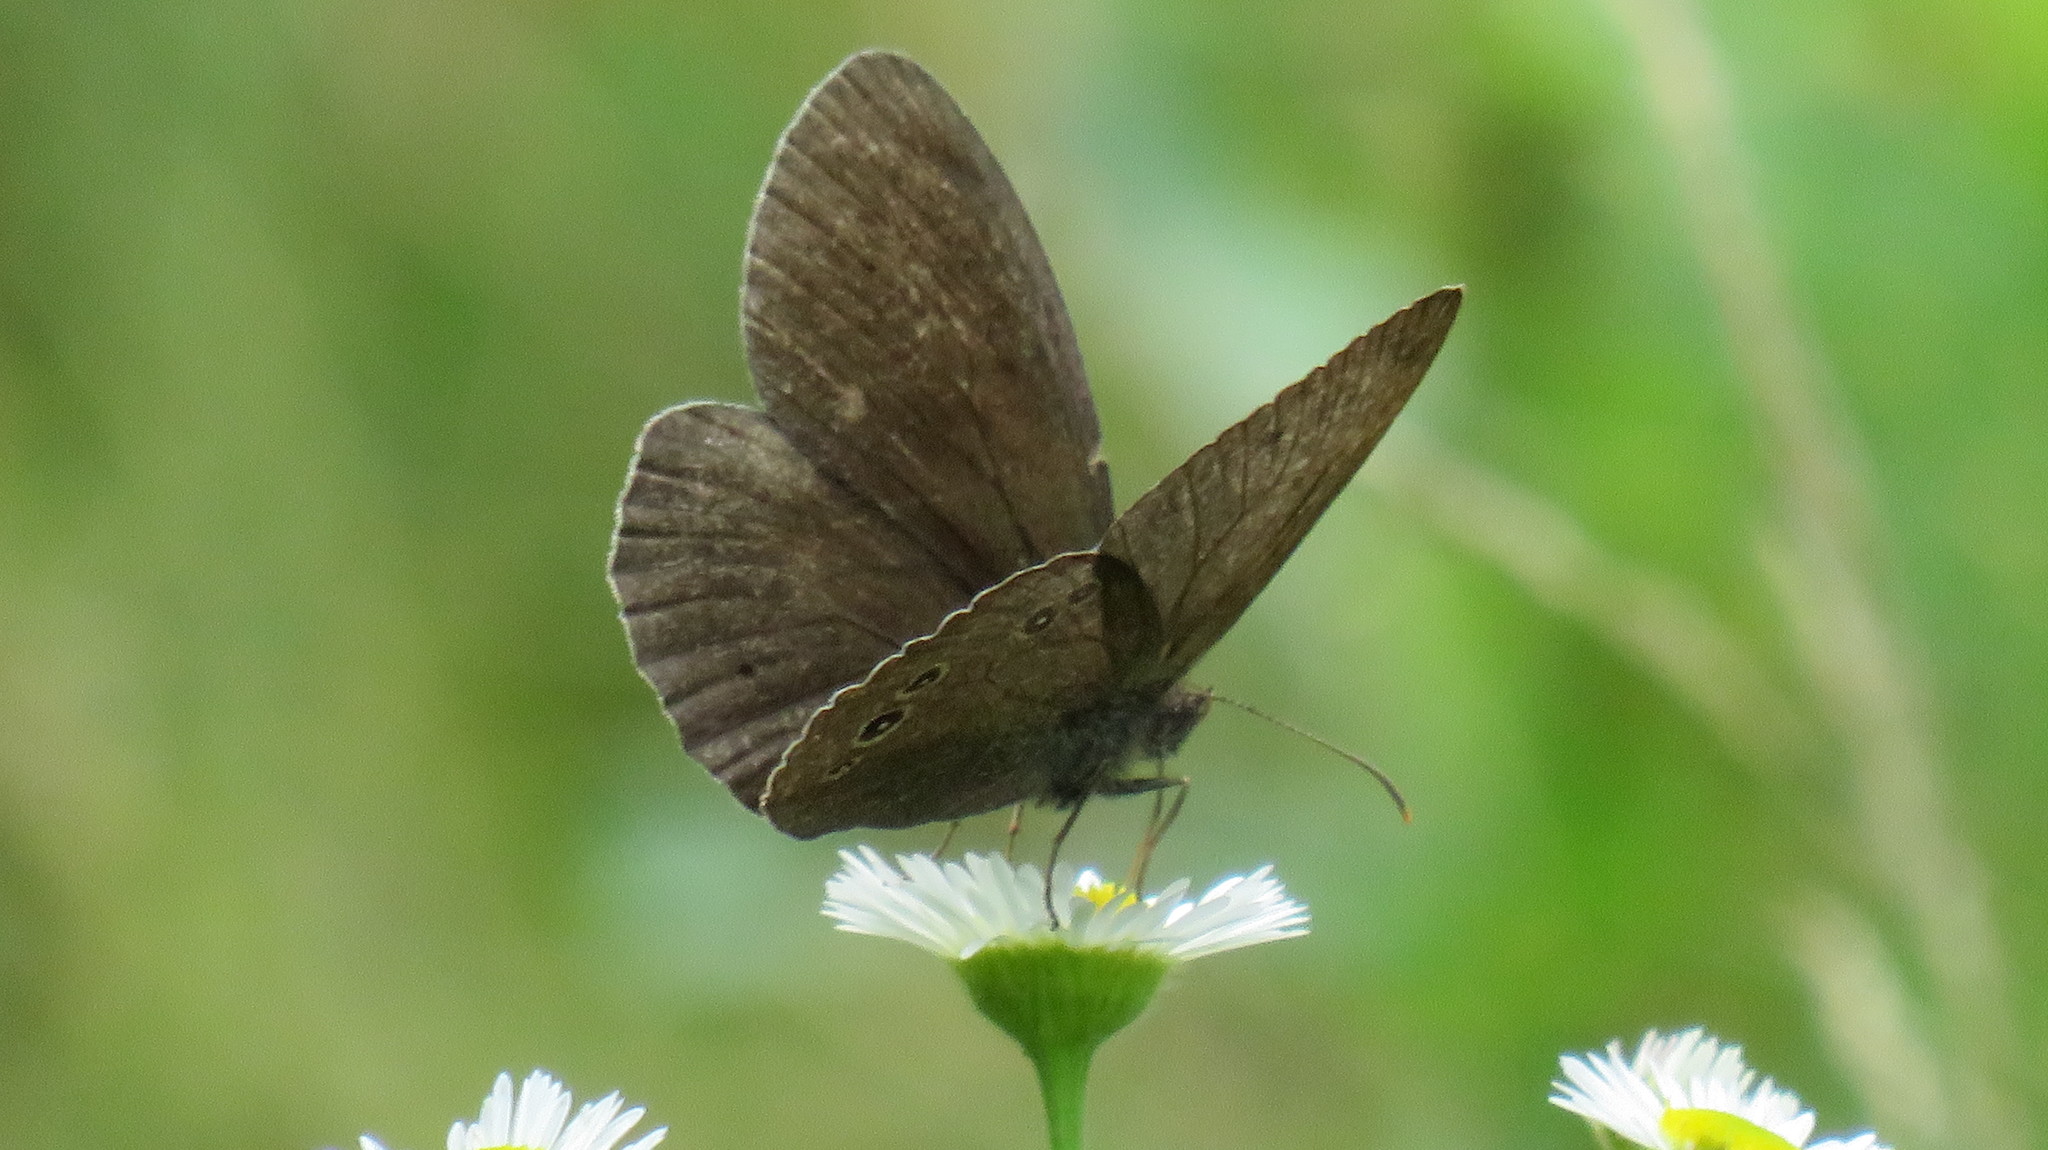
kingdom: Animalia
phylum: Arthropoda
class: Insecta
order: Lepidoptera
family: Nymphalidae
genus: Aphantopus
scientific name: Aphantopus hyperantus
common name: Ringlet
